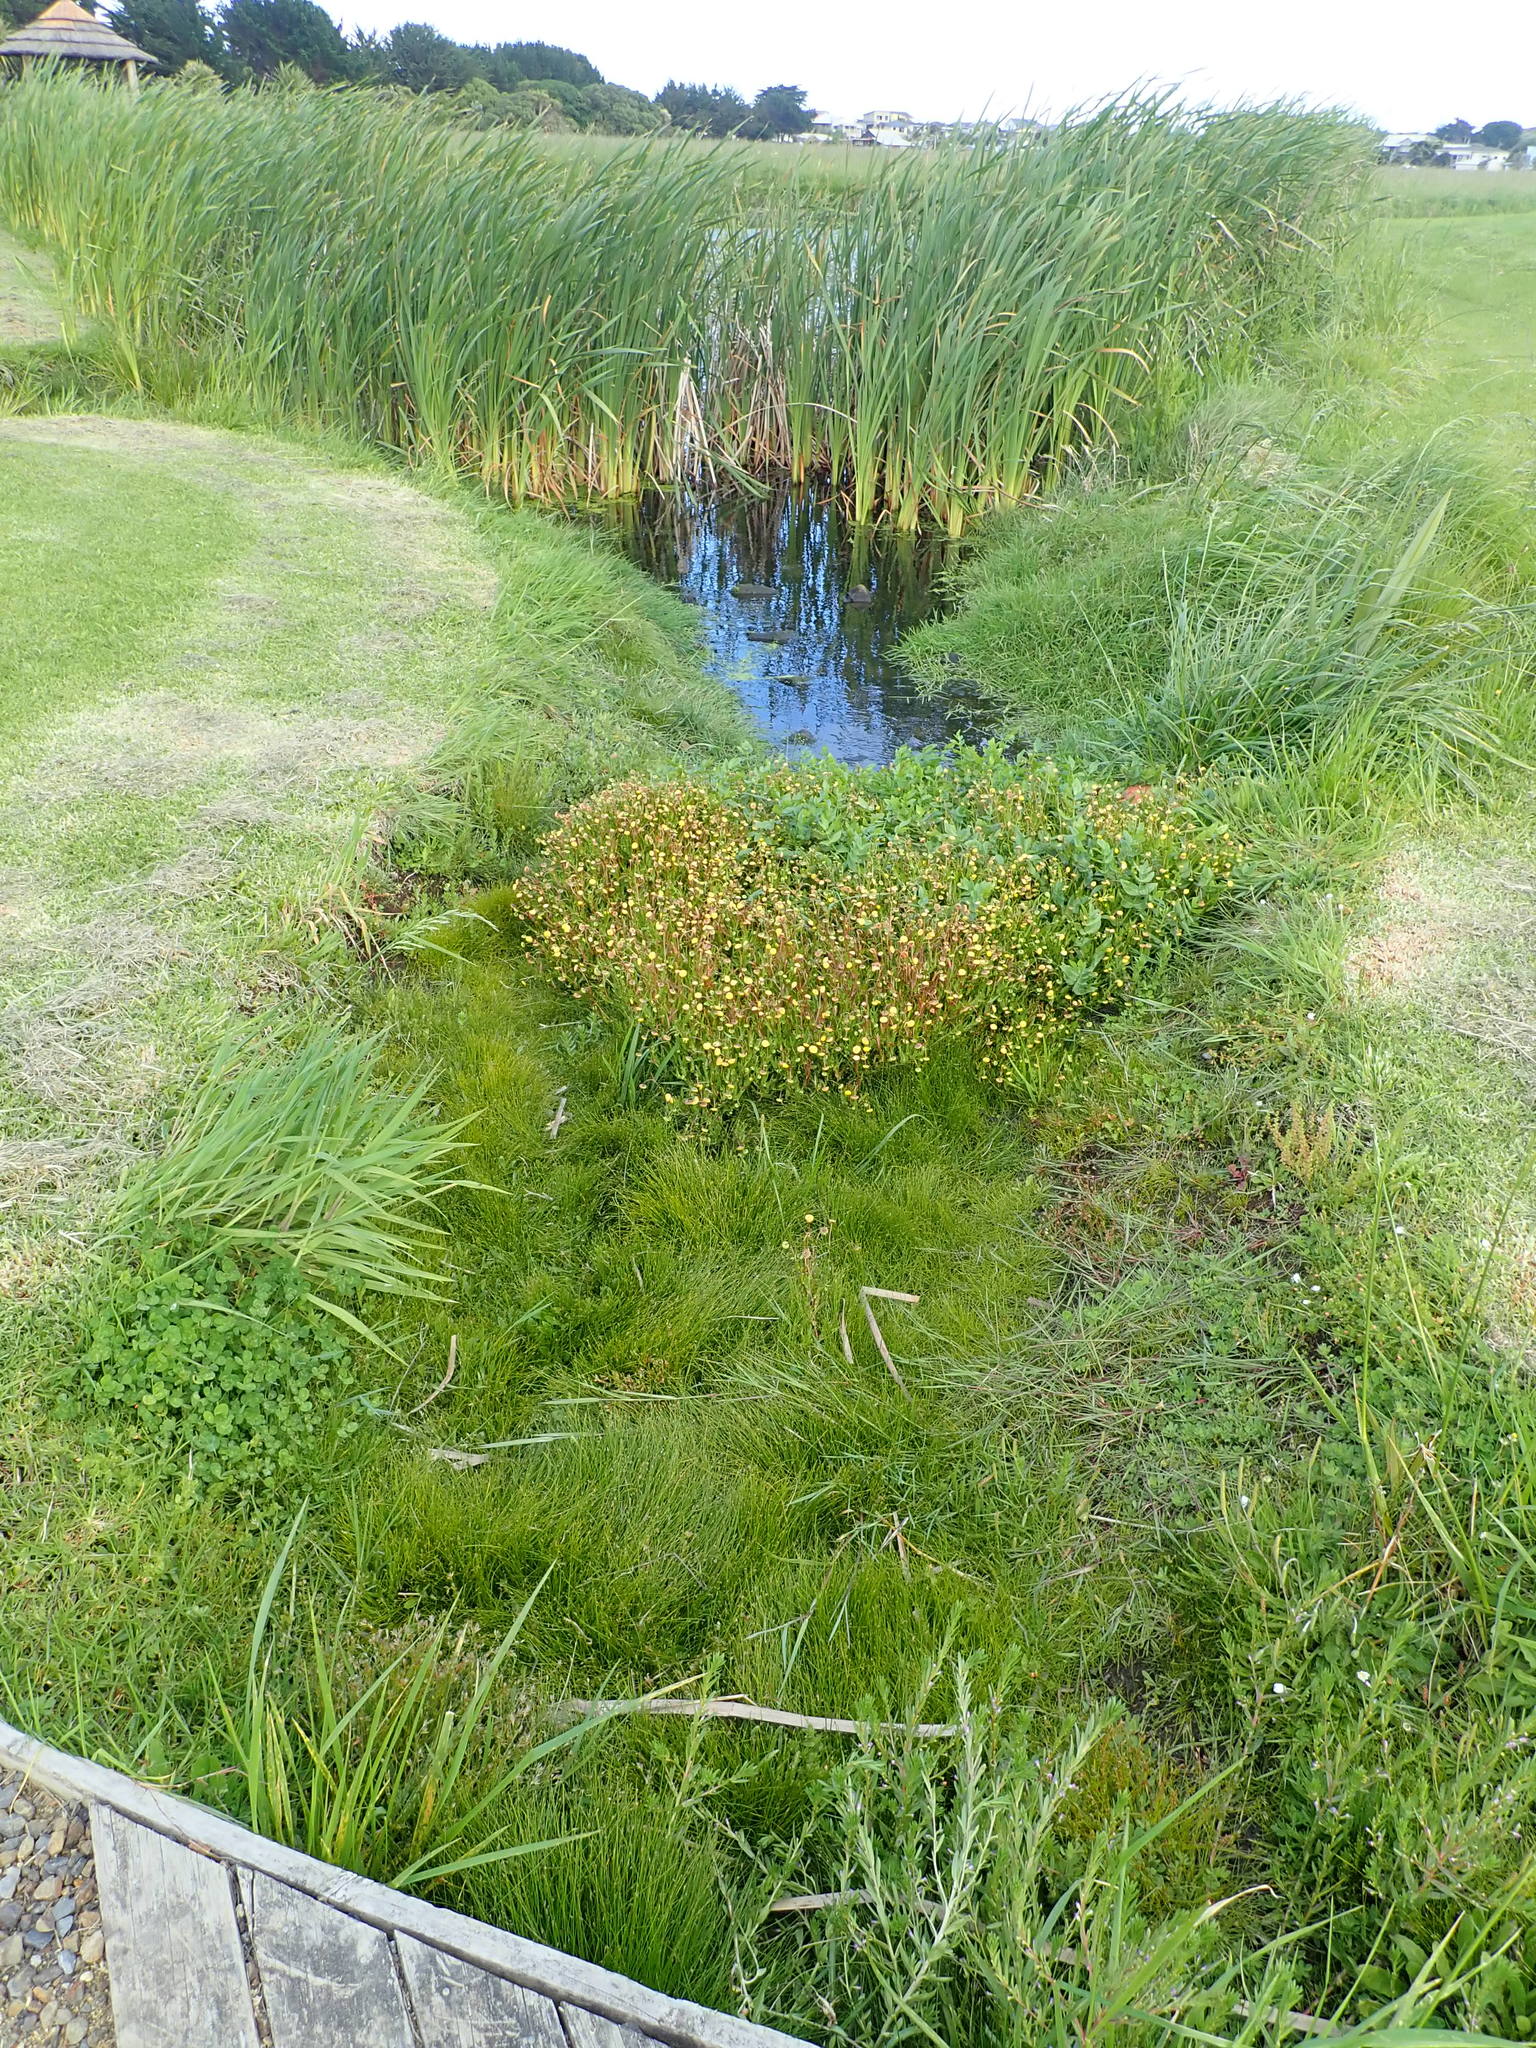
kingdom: Plantae
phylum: Tracheophyta
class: Magnoliopsida
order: Asterales
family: Asteraceae
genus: Cotula
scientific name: Cotula coronopifolia
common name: Buttonweed
